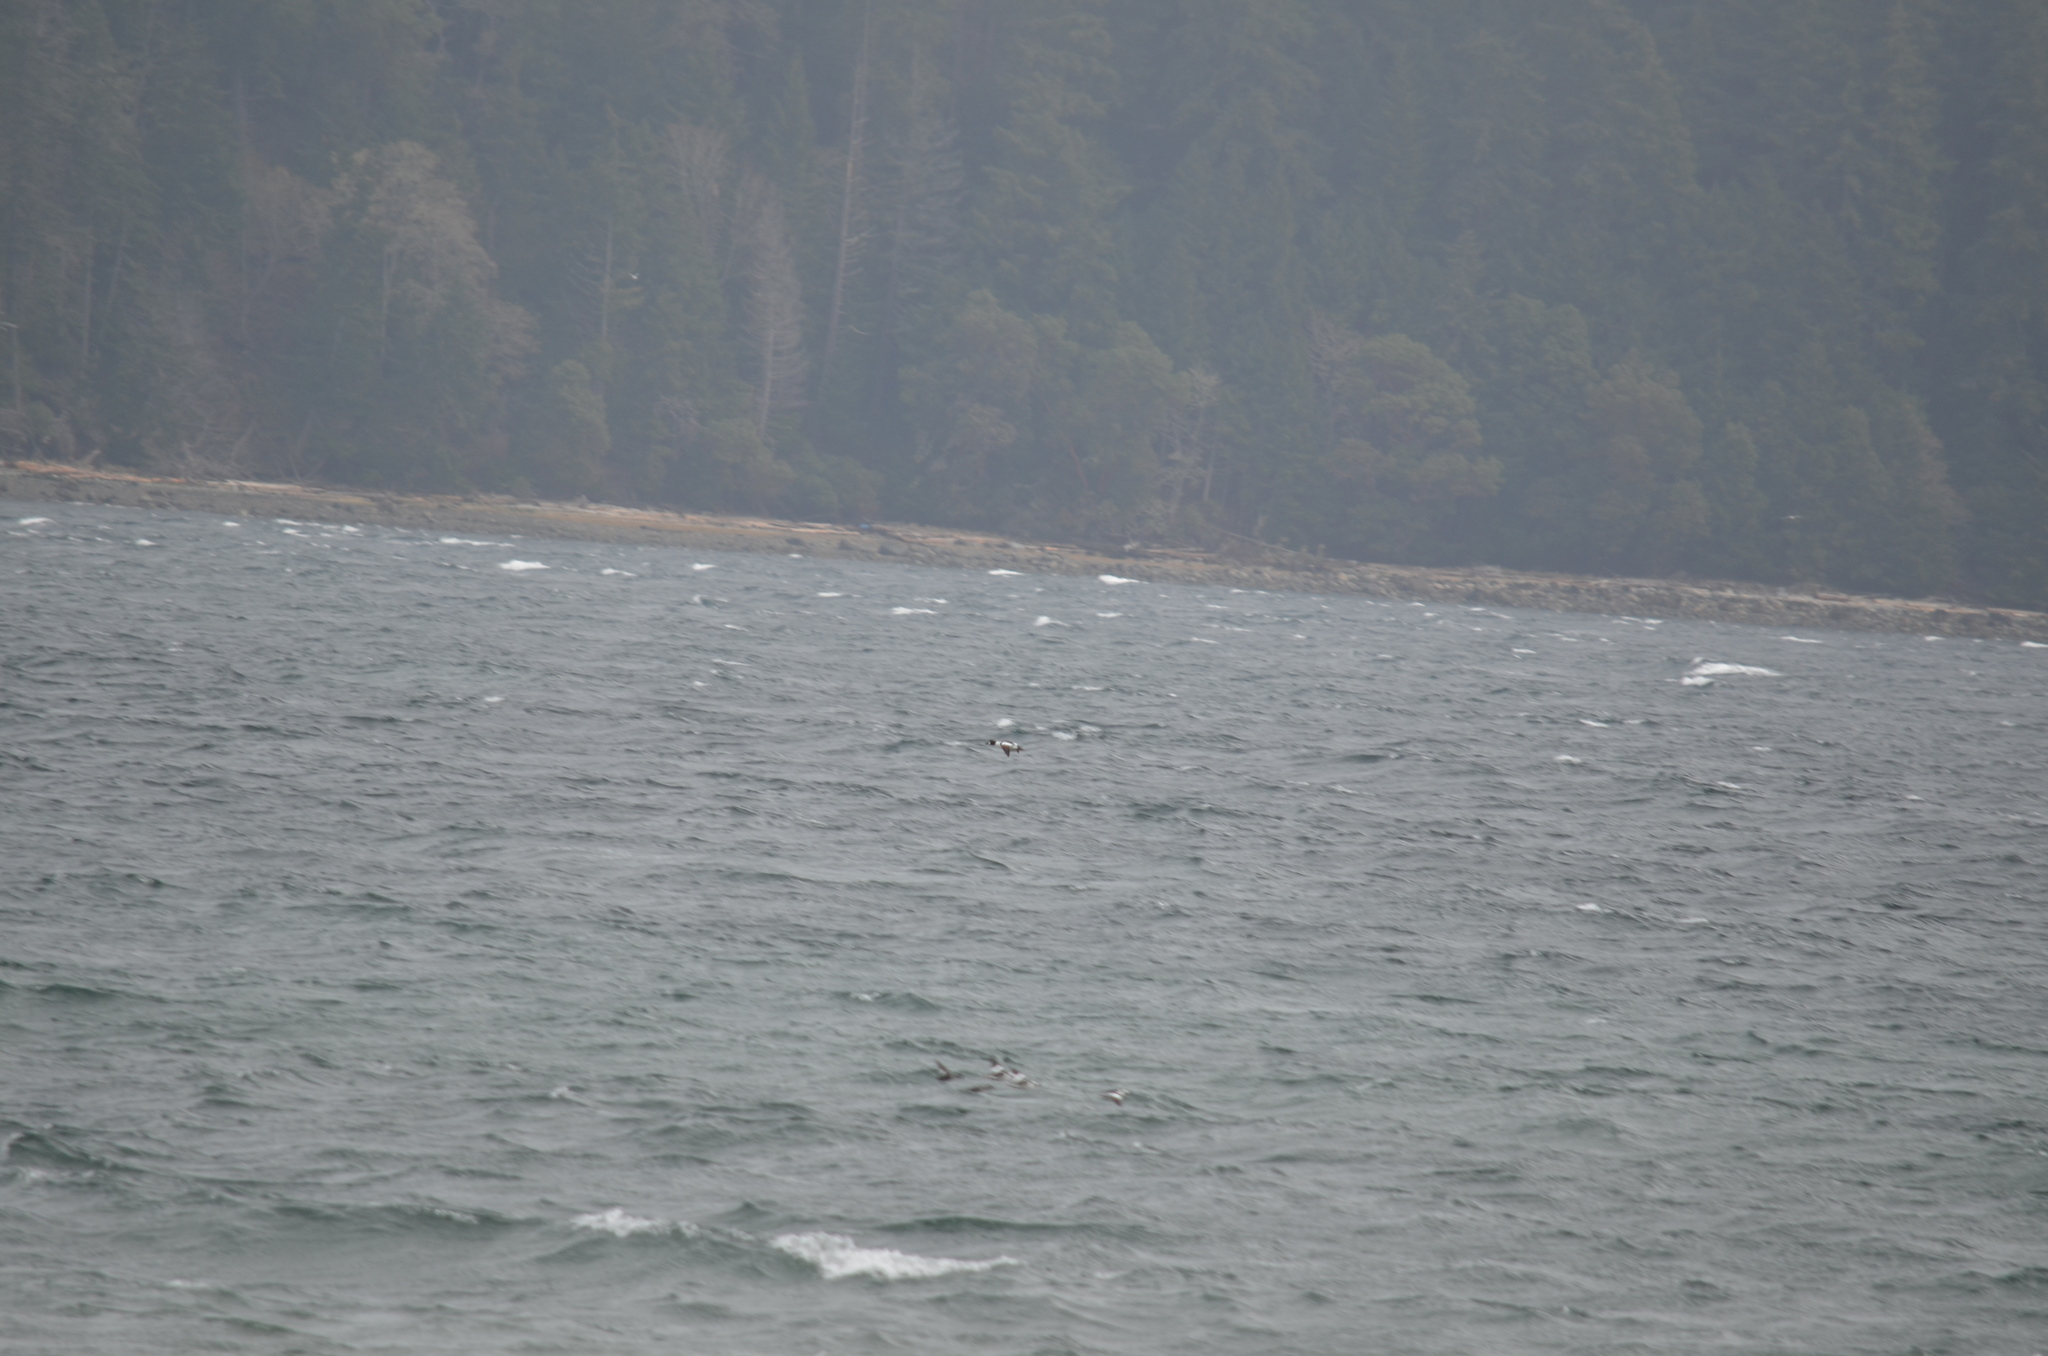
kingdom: Animalia
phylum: Chordata
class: Aves
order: Anseriformes
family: Anatidae
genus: Bucephala
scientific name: Bucephala clangula
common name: Common goldeneye
